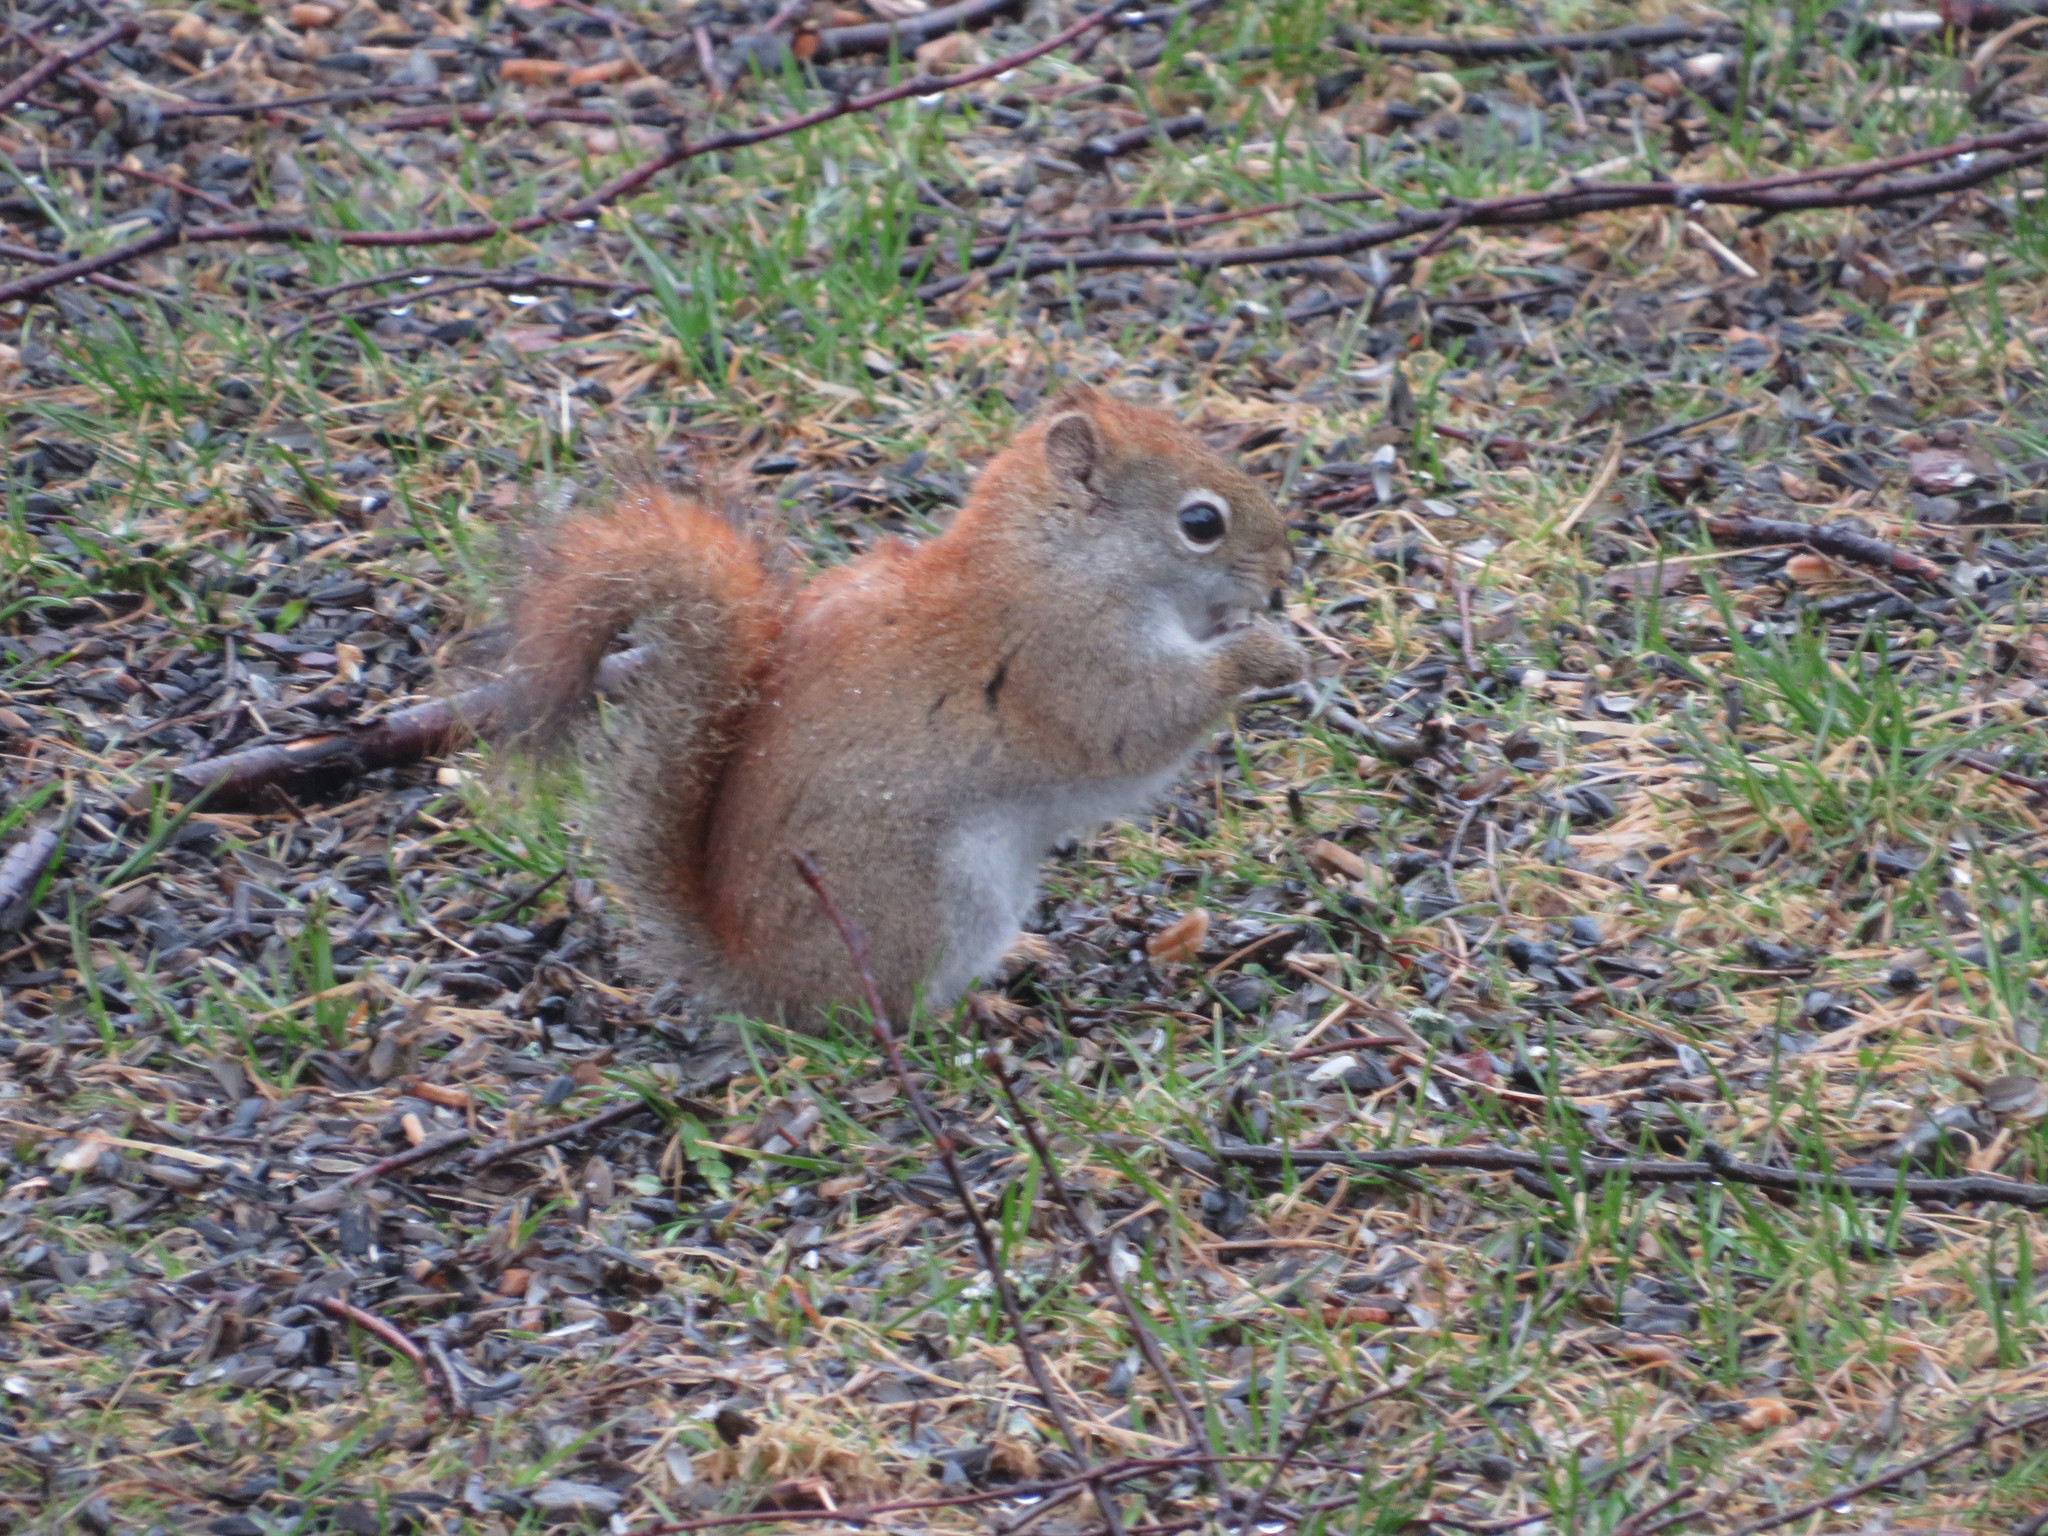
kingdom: Animalia
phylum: Chordata
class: Mammalia
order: Rodentia
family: Sciuridae
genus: Tamiasciurus
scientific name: Tamiasciurus hudsonicus
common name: Red squirrel
